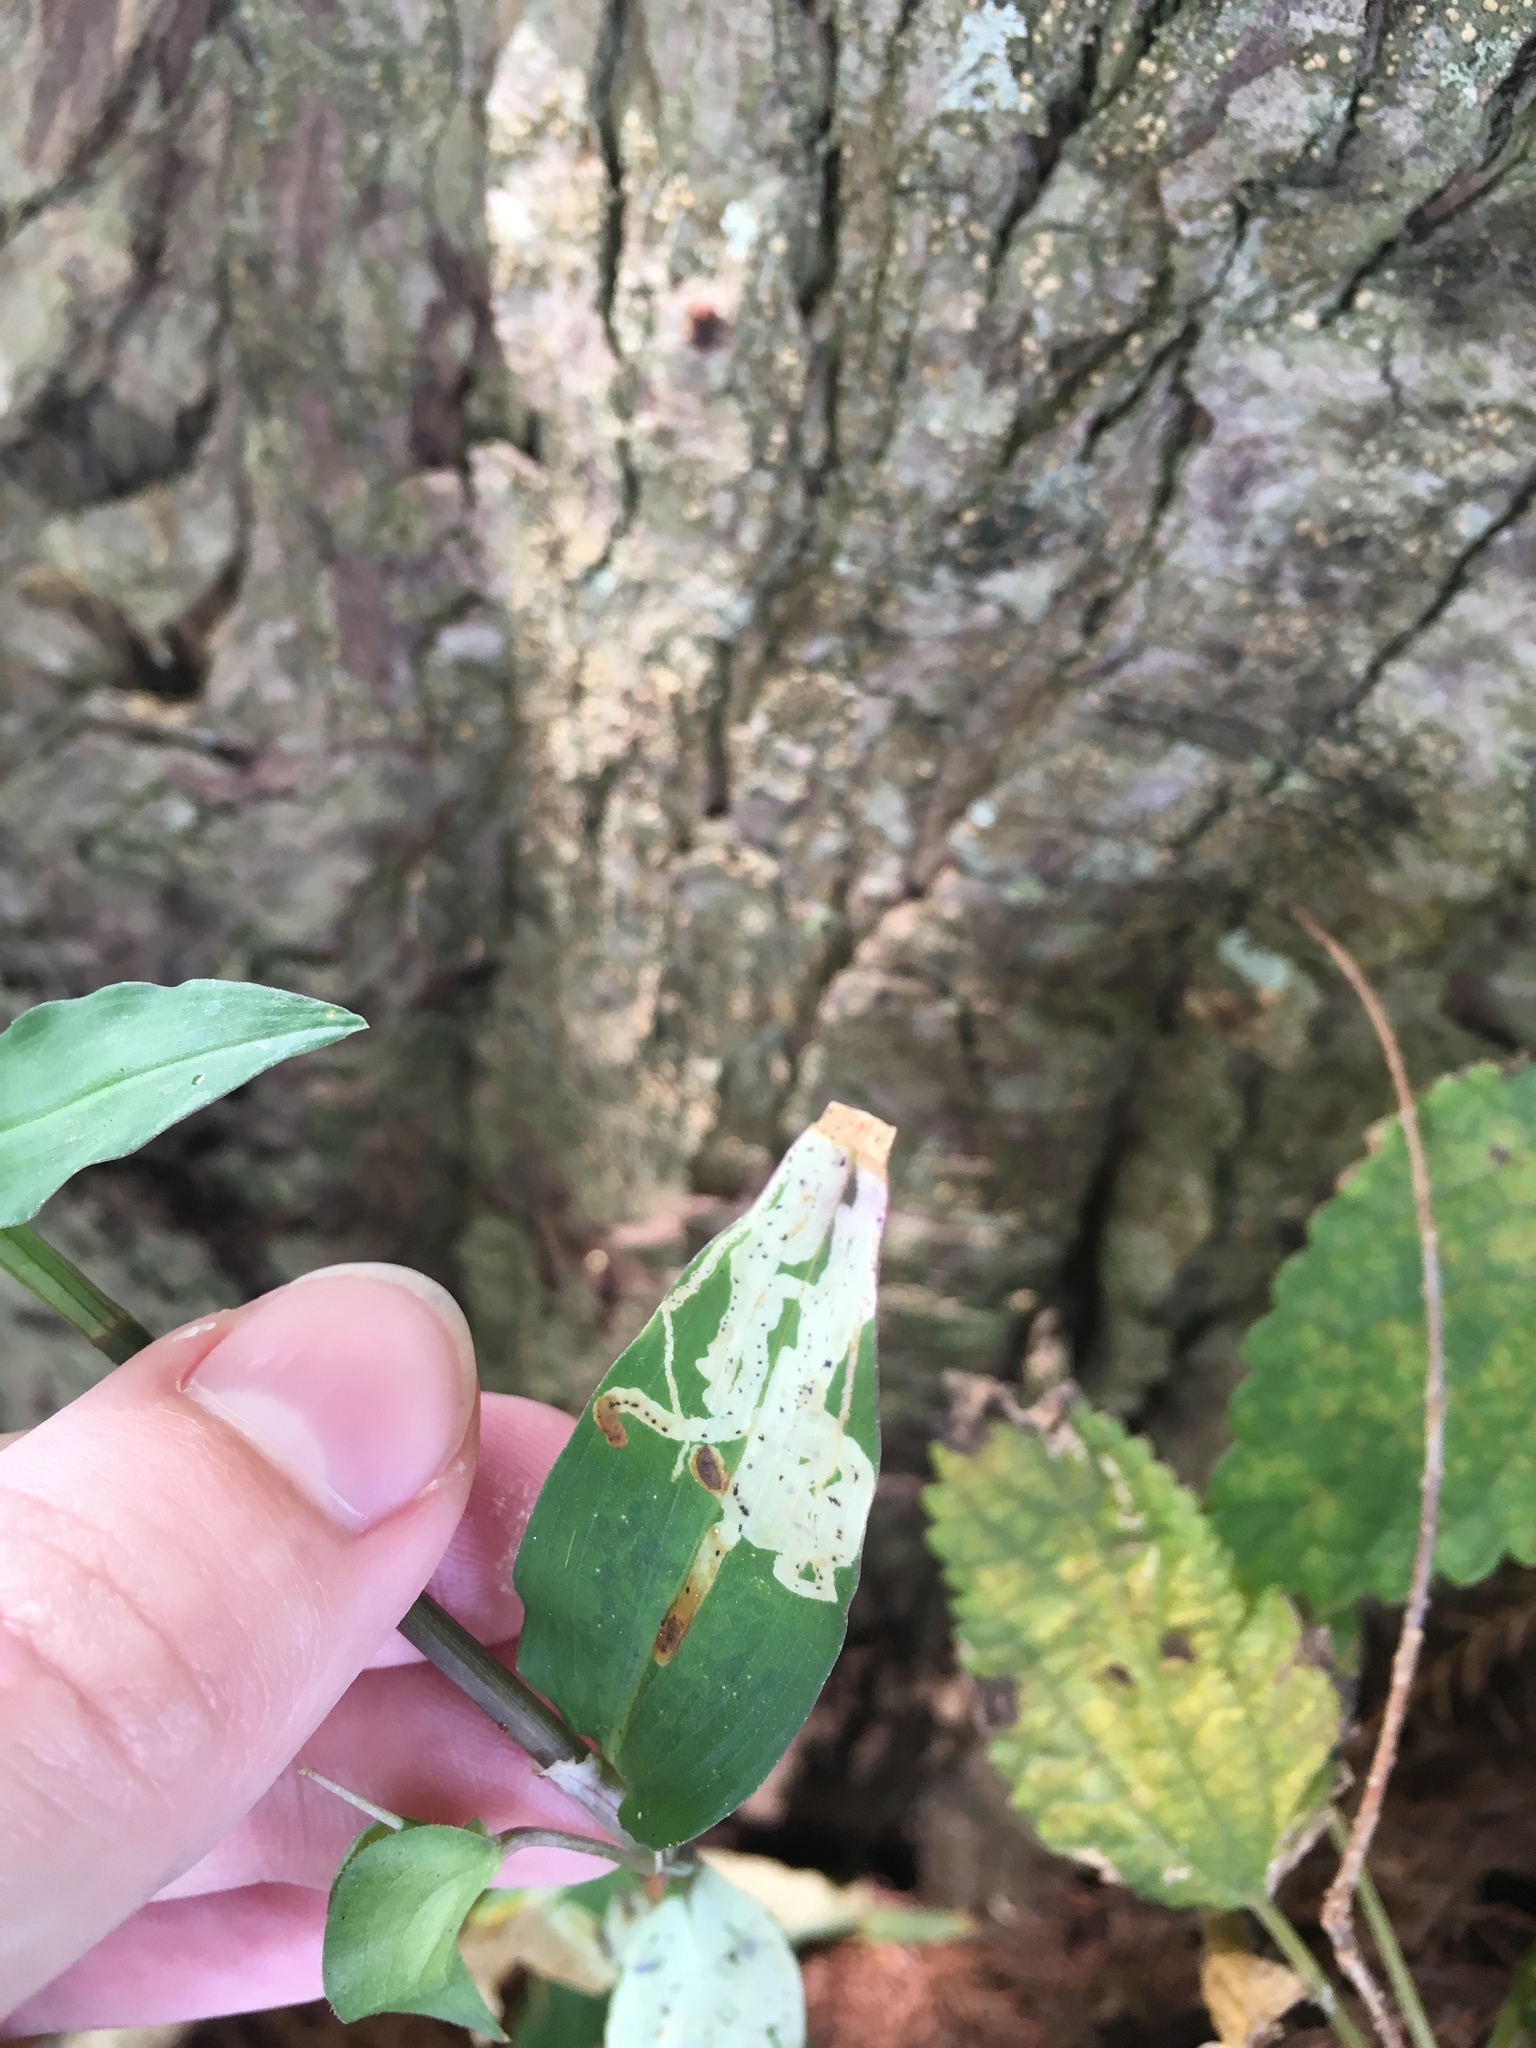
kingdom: Animalia
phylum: Arthropoda
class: Insecta
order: Diptera
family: Agromyzidae
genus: Liriomyza
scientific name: Liriomyza commelinae
